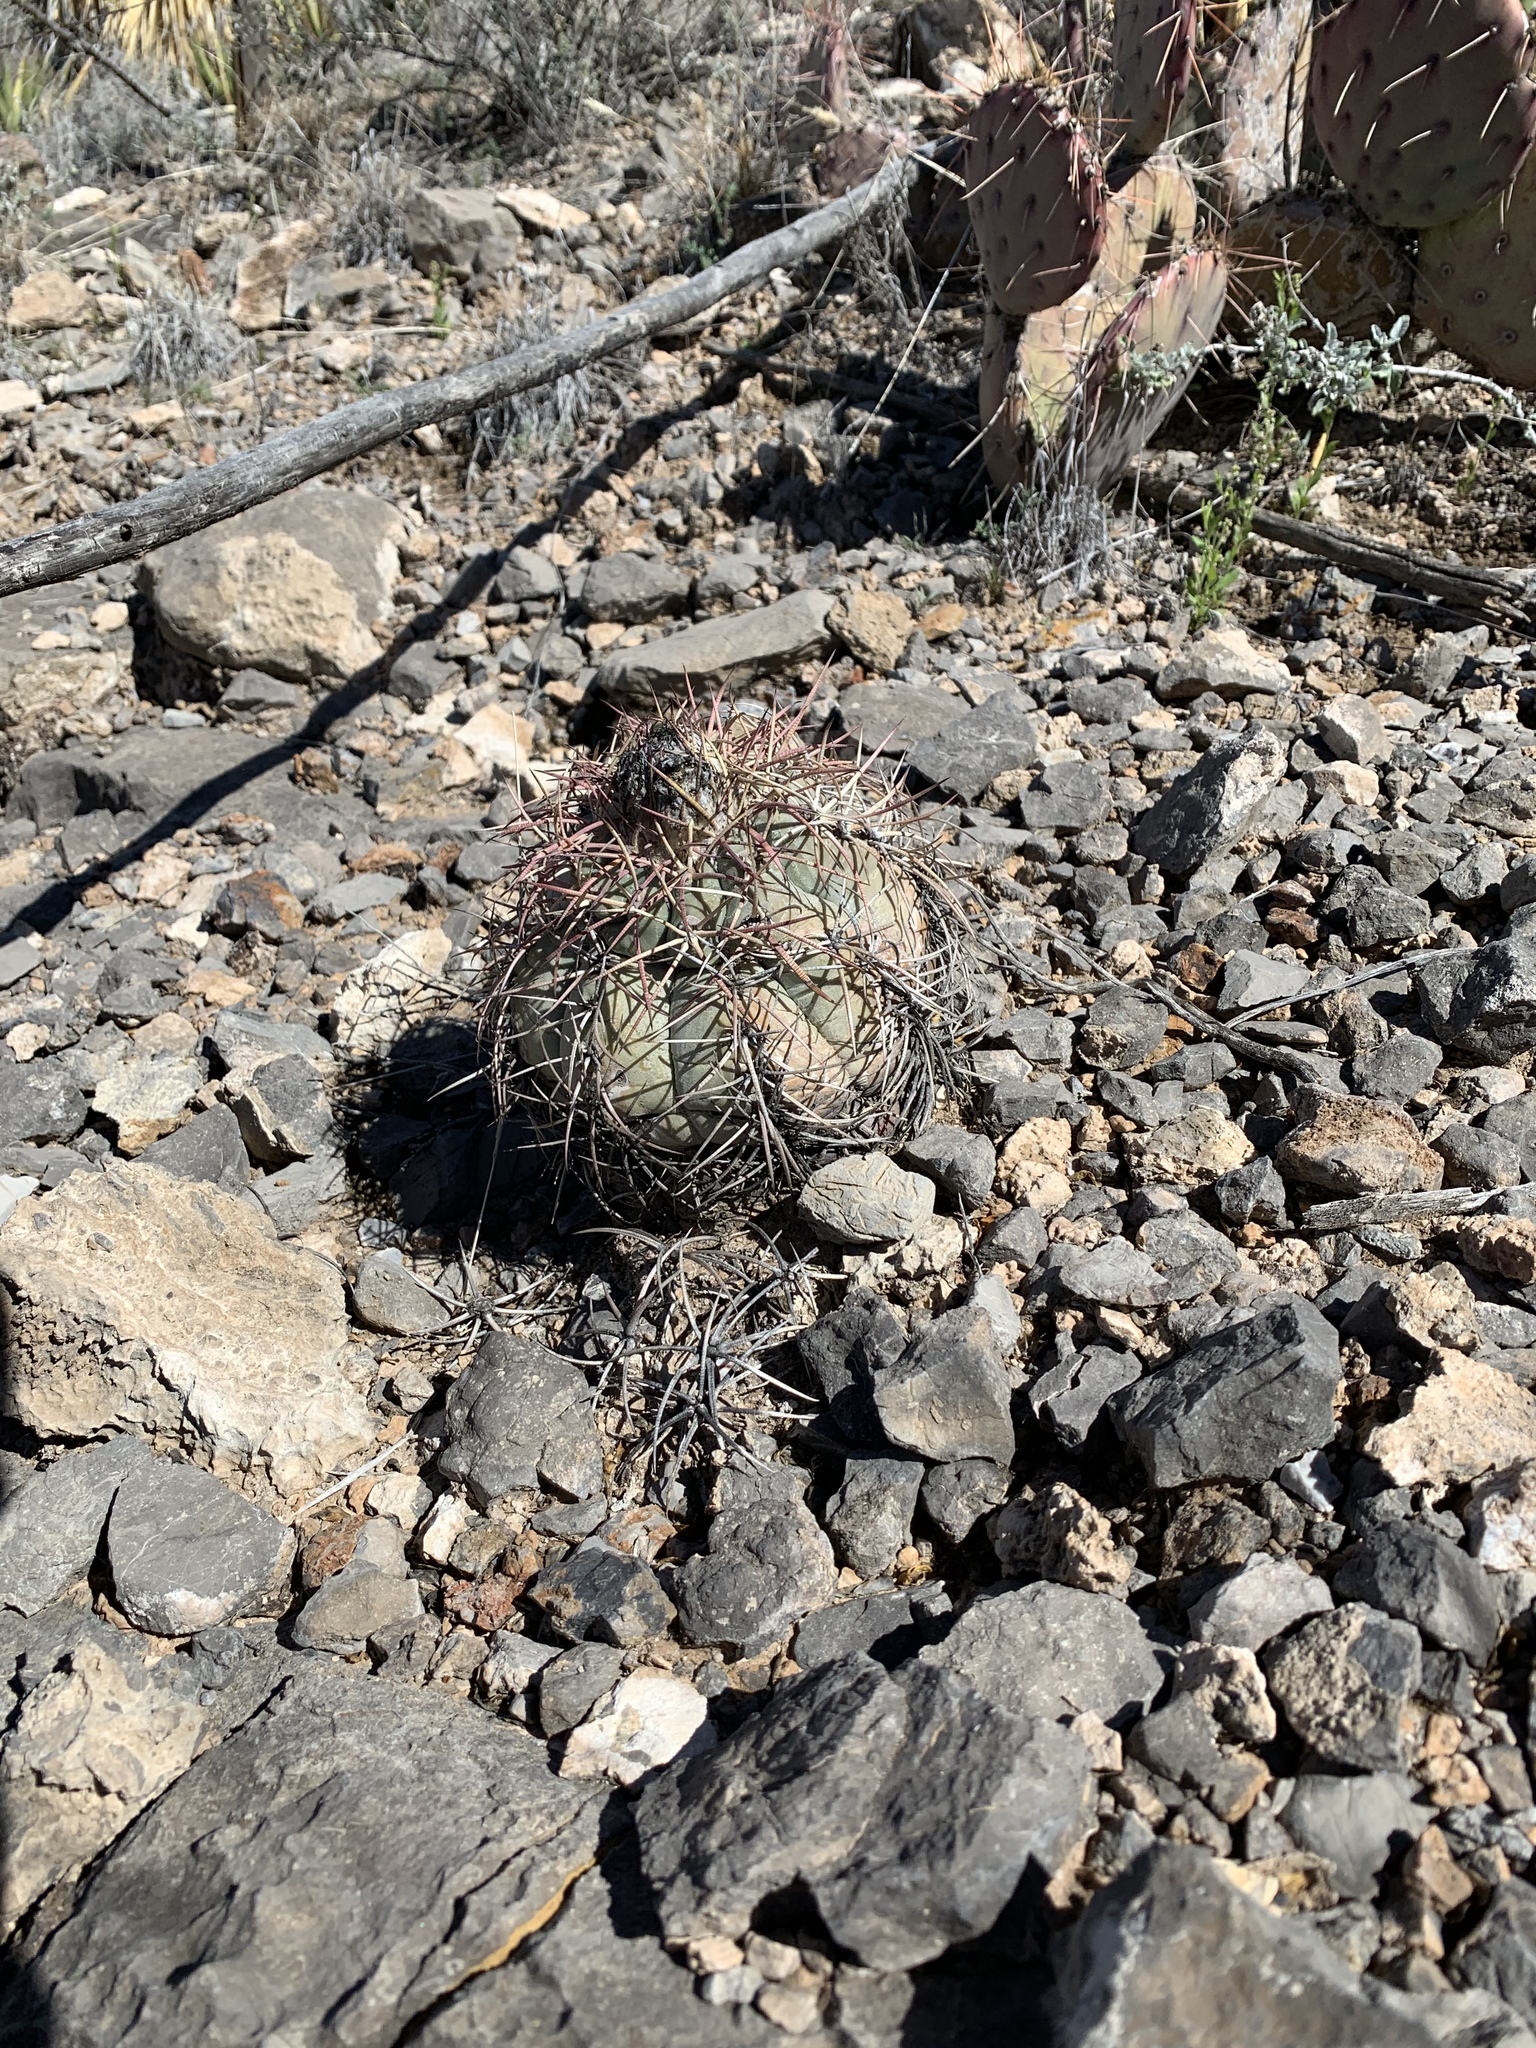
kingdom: Plantae
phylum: Tracheophyta
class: Magnoliopsida
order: Caryophyllales
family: Cactaceae
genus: Echinocactus
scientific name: Echinocactus horizonthalonius
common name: Devilshead
